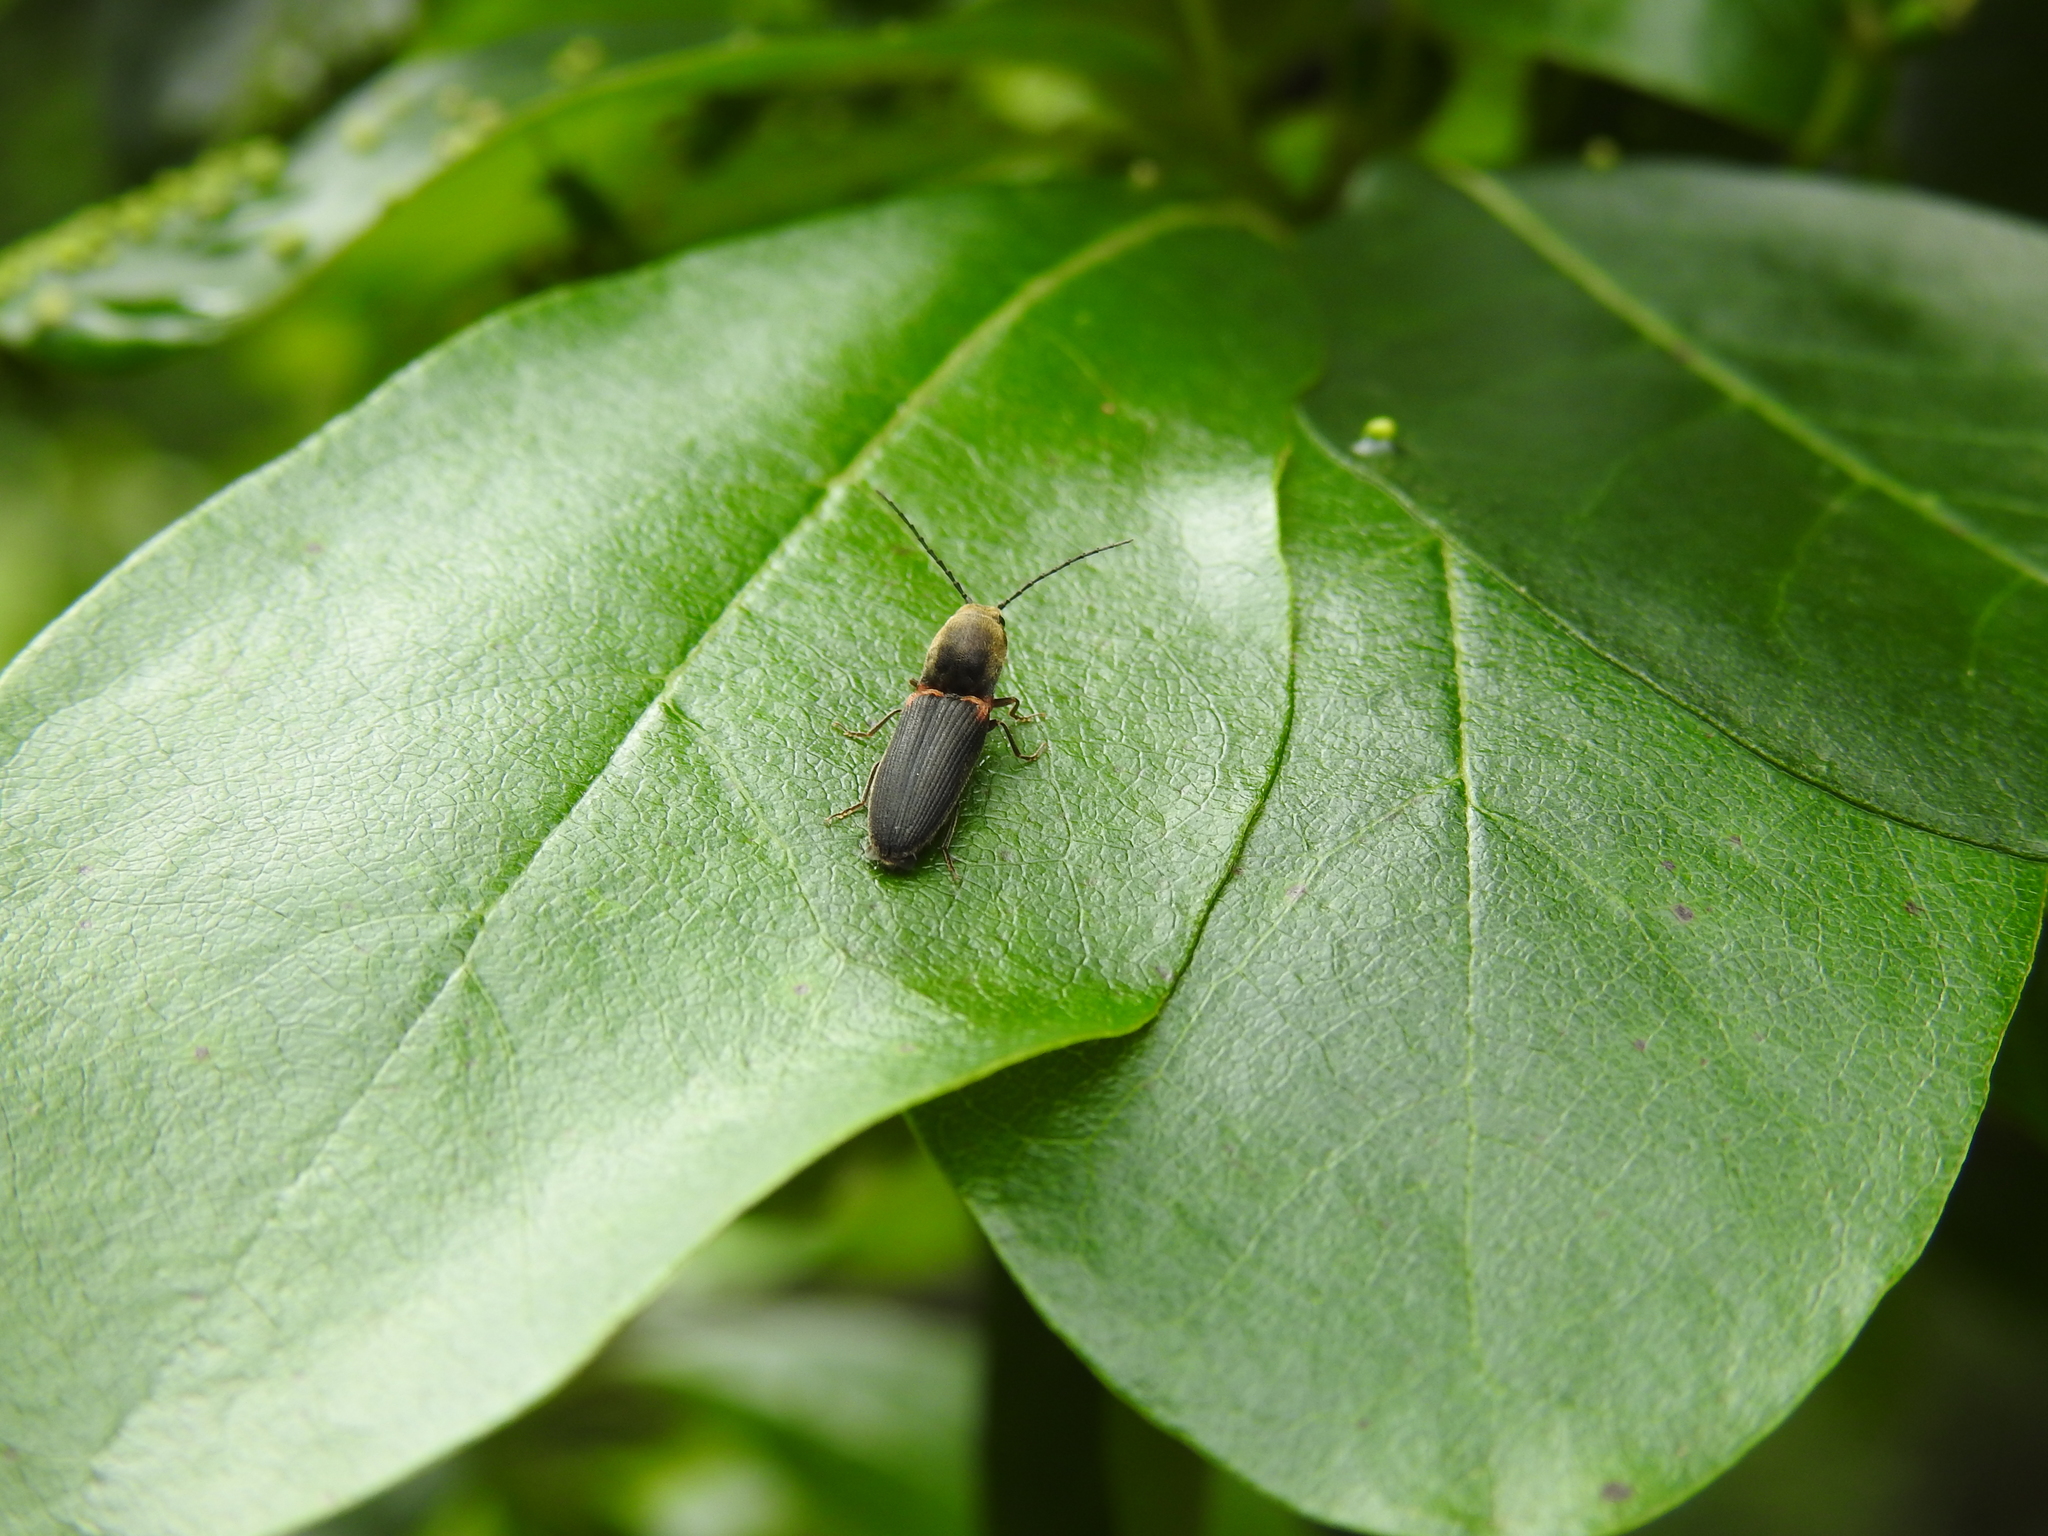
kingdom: Animalia
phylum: Arthropoda
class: Insecta
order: Coleoptera
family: Elateridae
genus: Athous
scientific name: Athous scapularis
